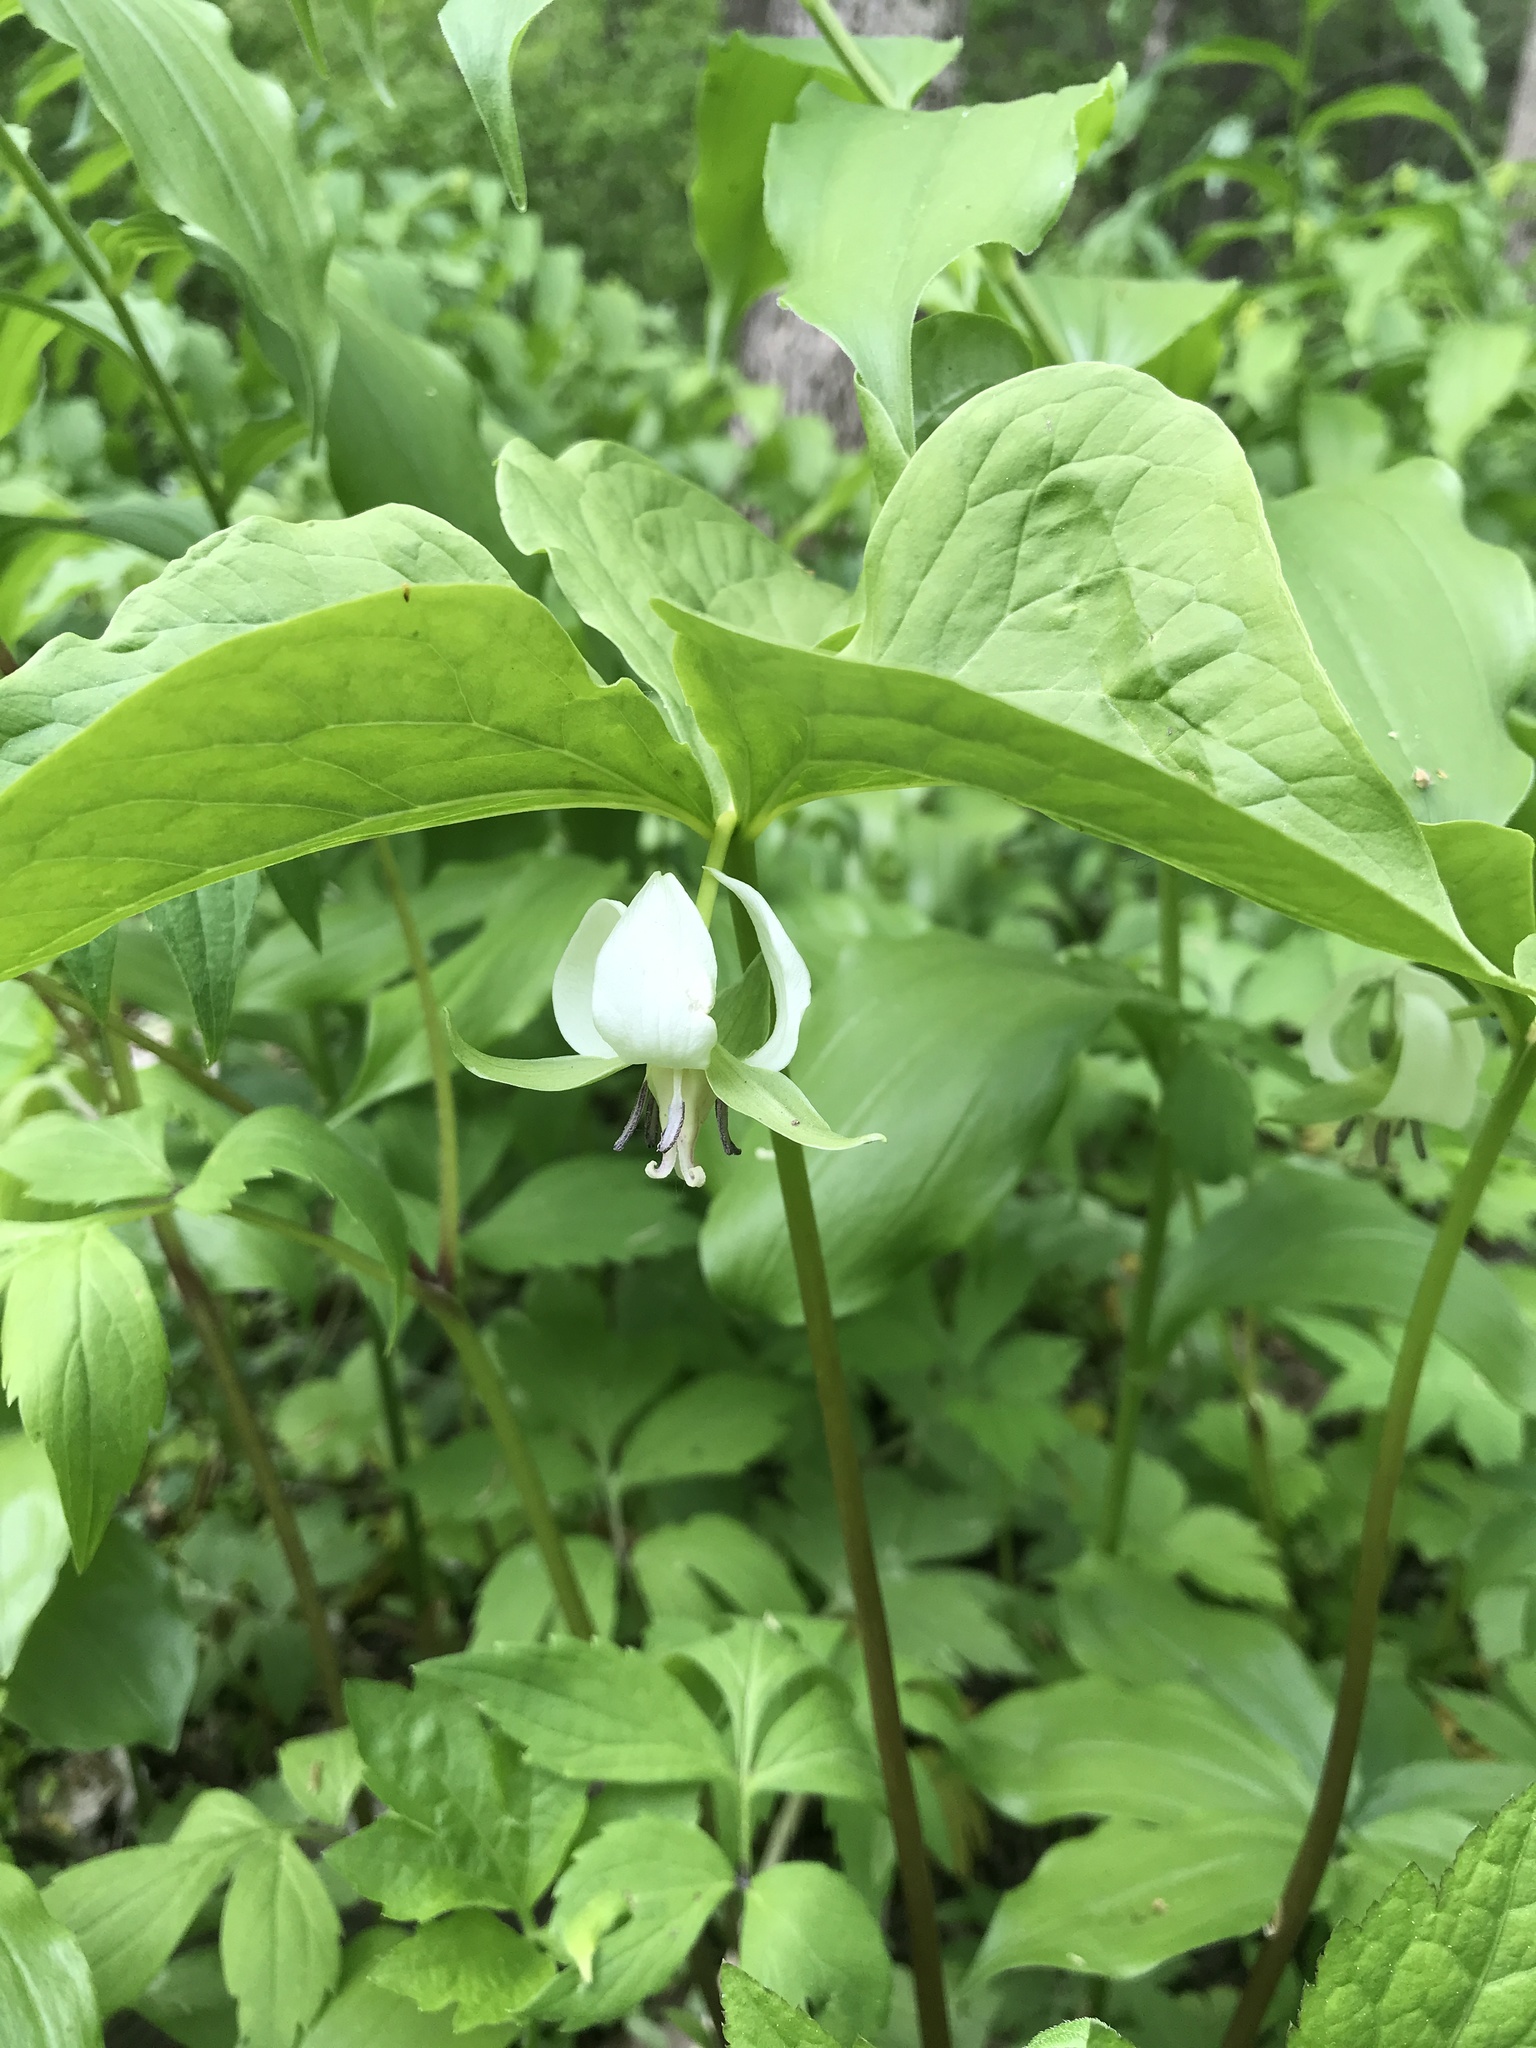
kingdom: Plantae
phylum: Tracheophyta
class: Liliopsida
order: Liliales
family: Melanthiaceae
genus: Trillium
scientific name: Trillium cernuum
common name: Nodding trillium
